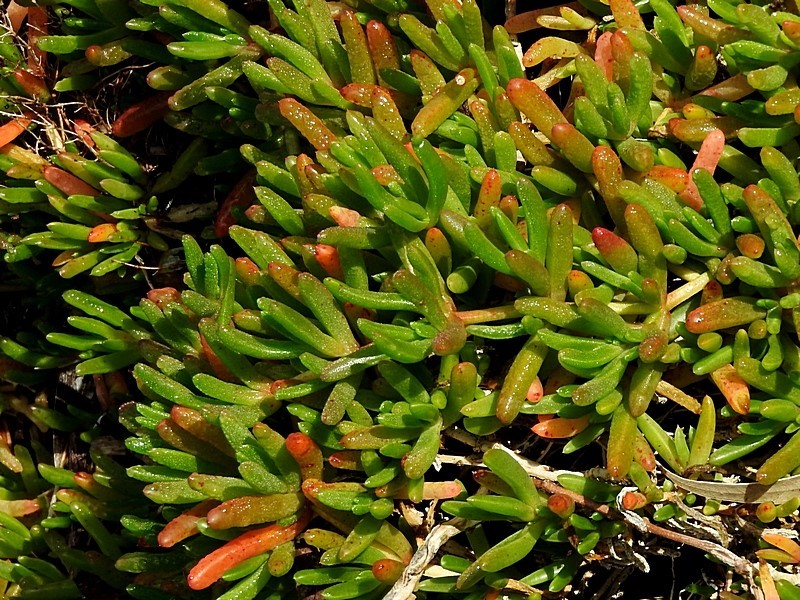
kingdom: Plantae
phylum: Tracheophyta
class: Magnoliopsida
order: Caryophyllales
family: Aizoaceae
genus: Disphyma
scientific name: Disphyma clavellatum
